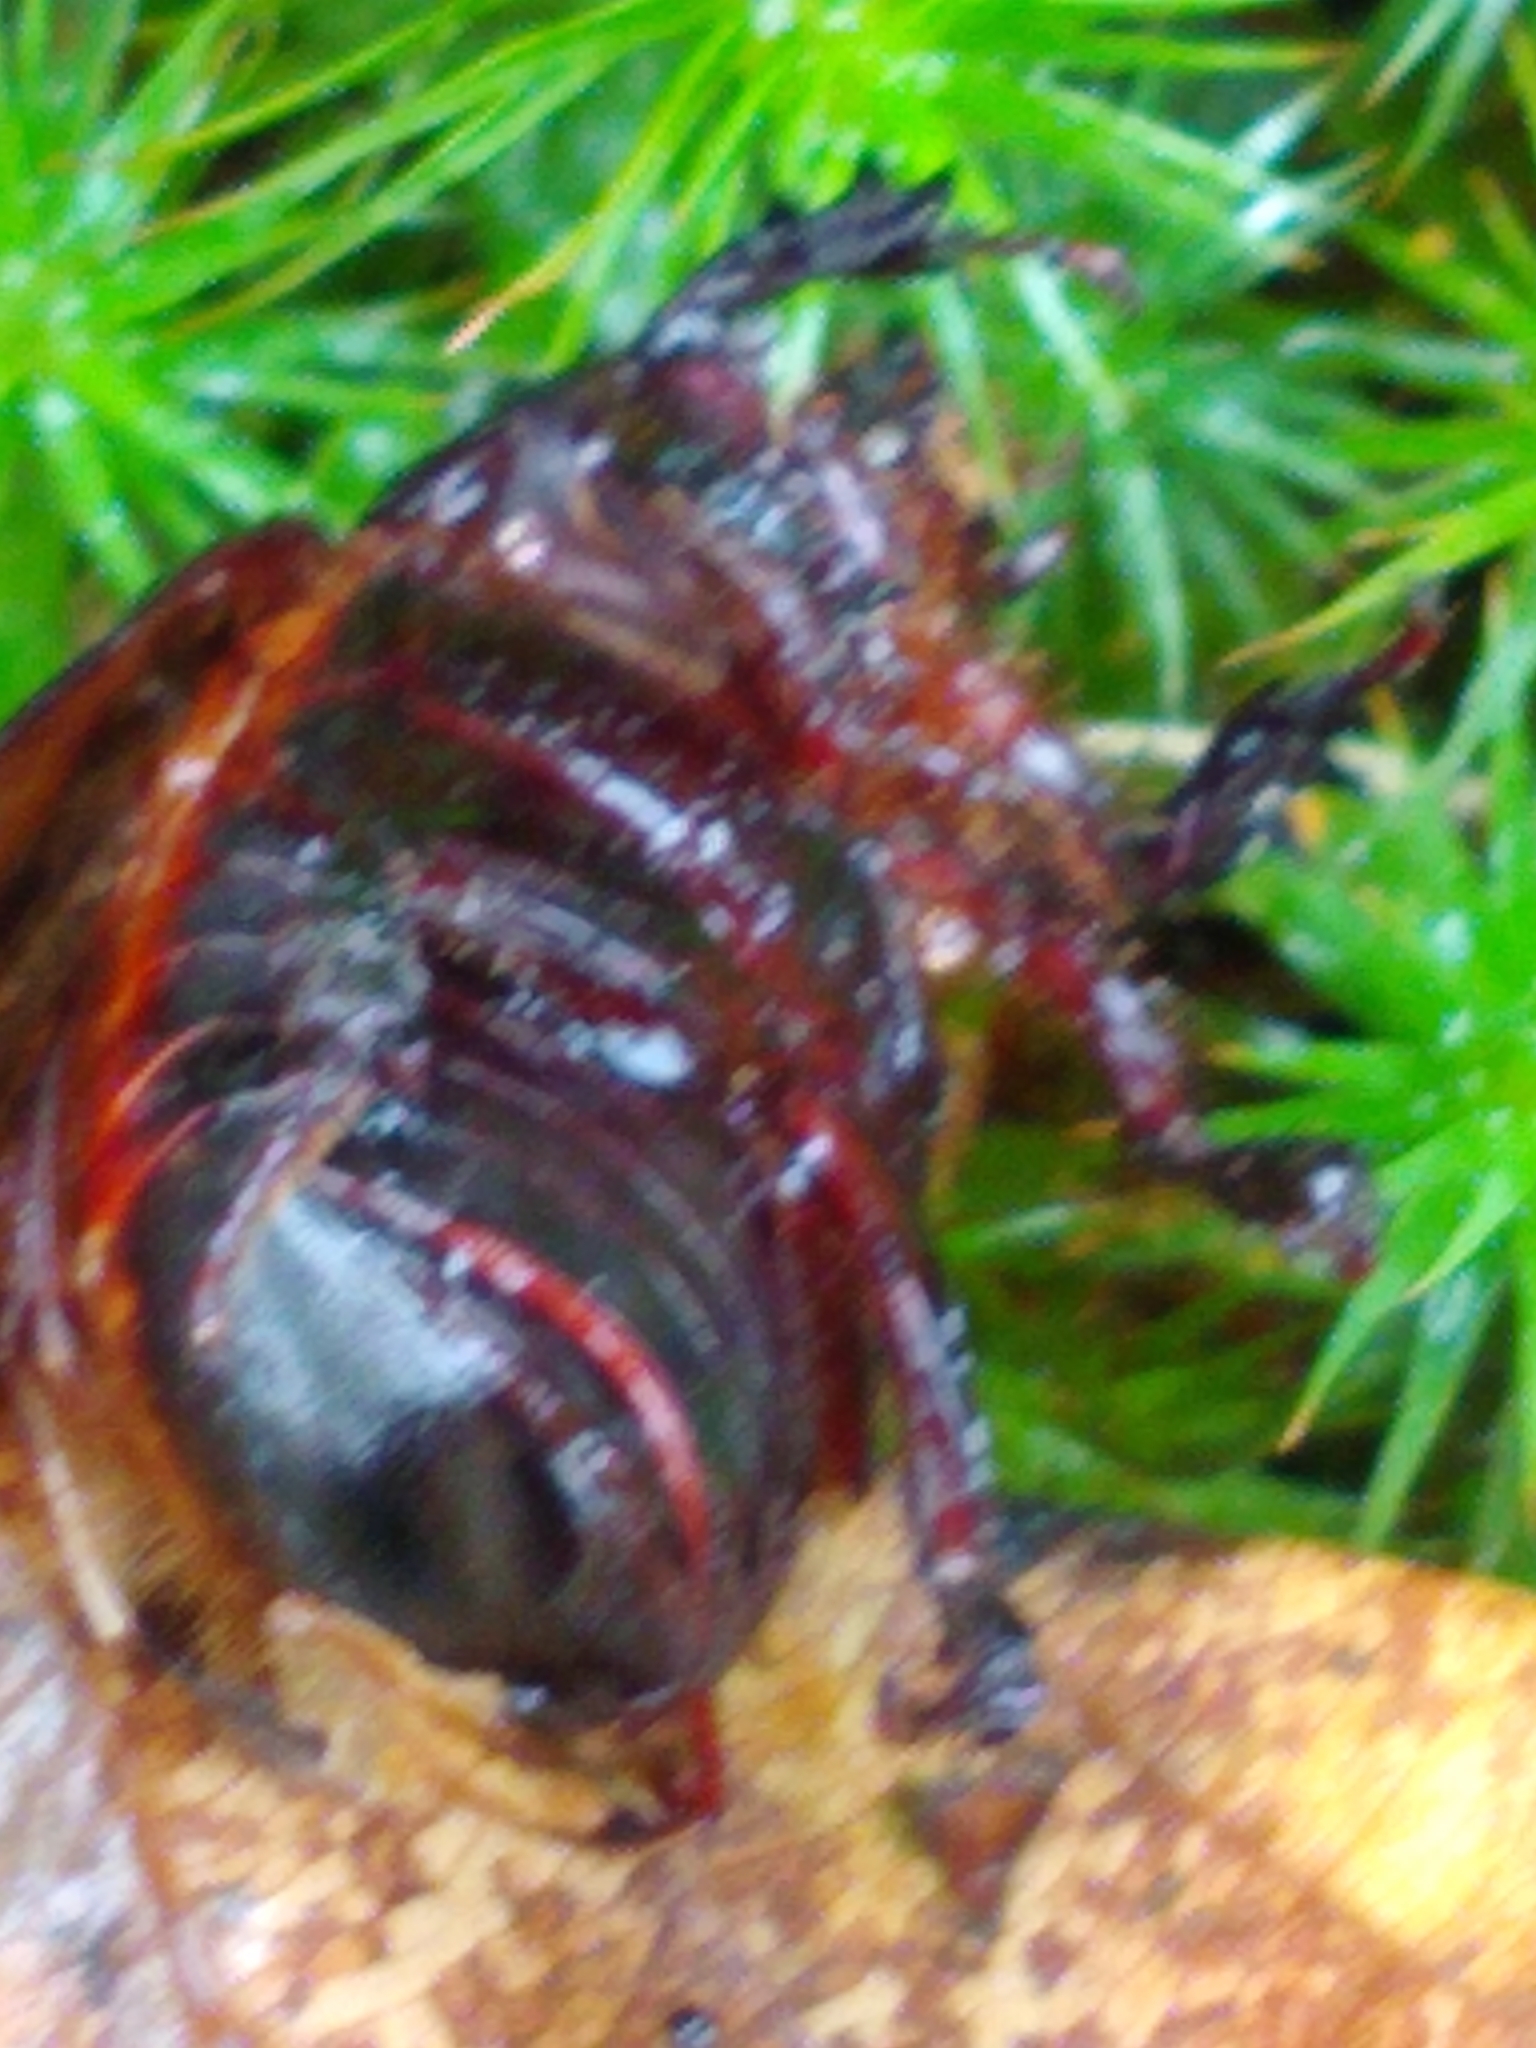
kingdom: Animalia
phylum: Arthropoda
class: Insecta
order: Coleoptera
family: Scarabaeidae
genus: Ligyrus
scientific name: Ligyrus relictus
